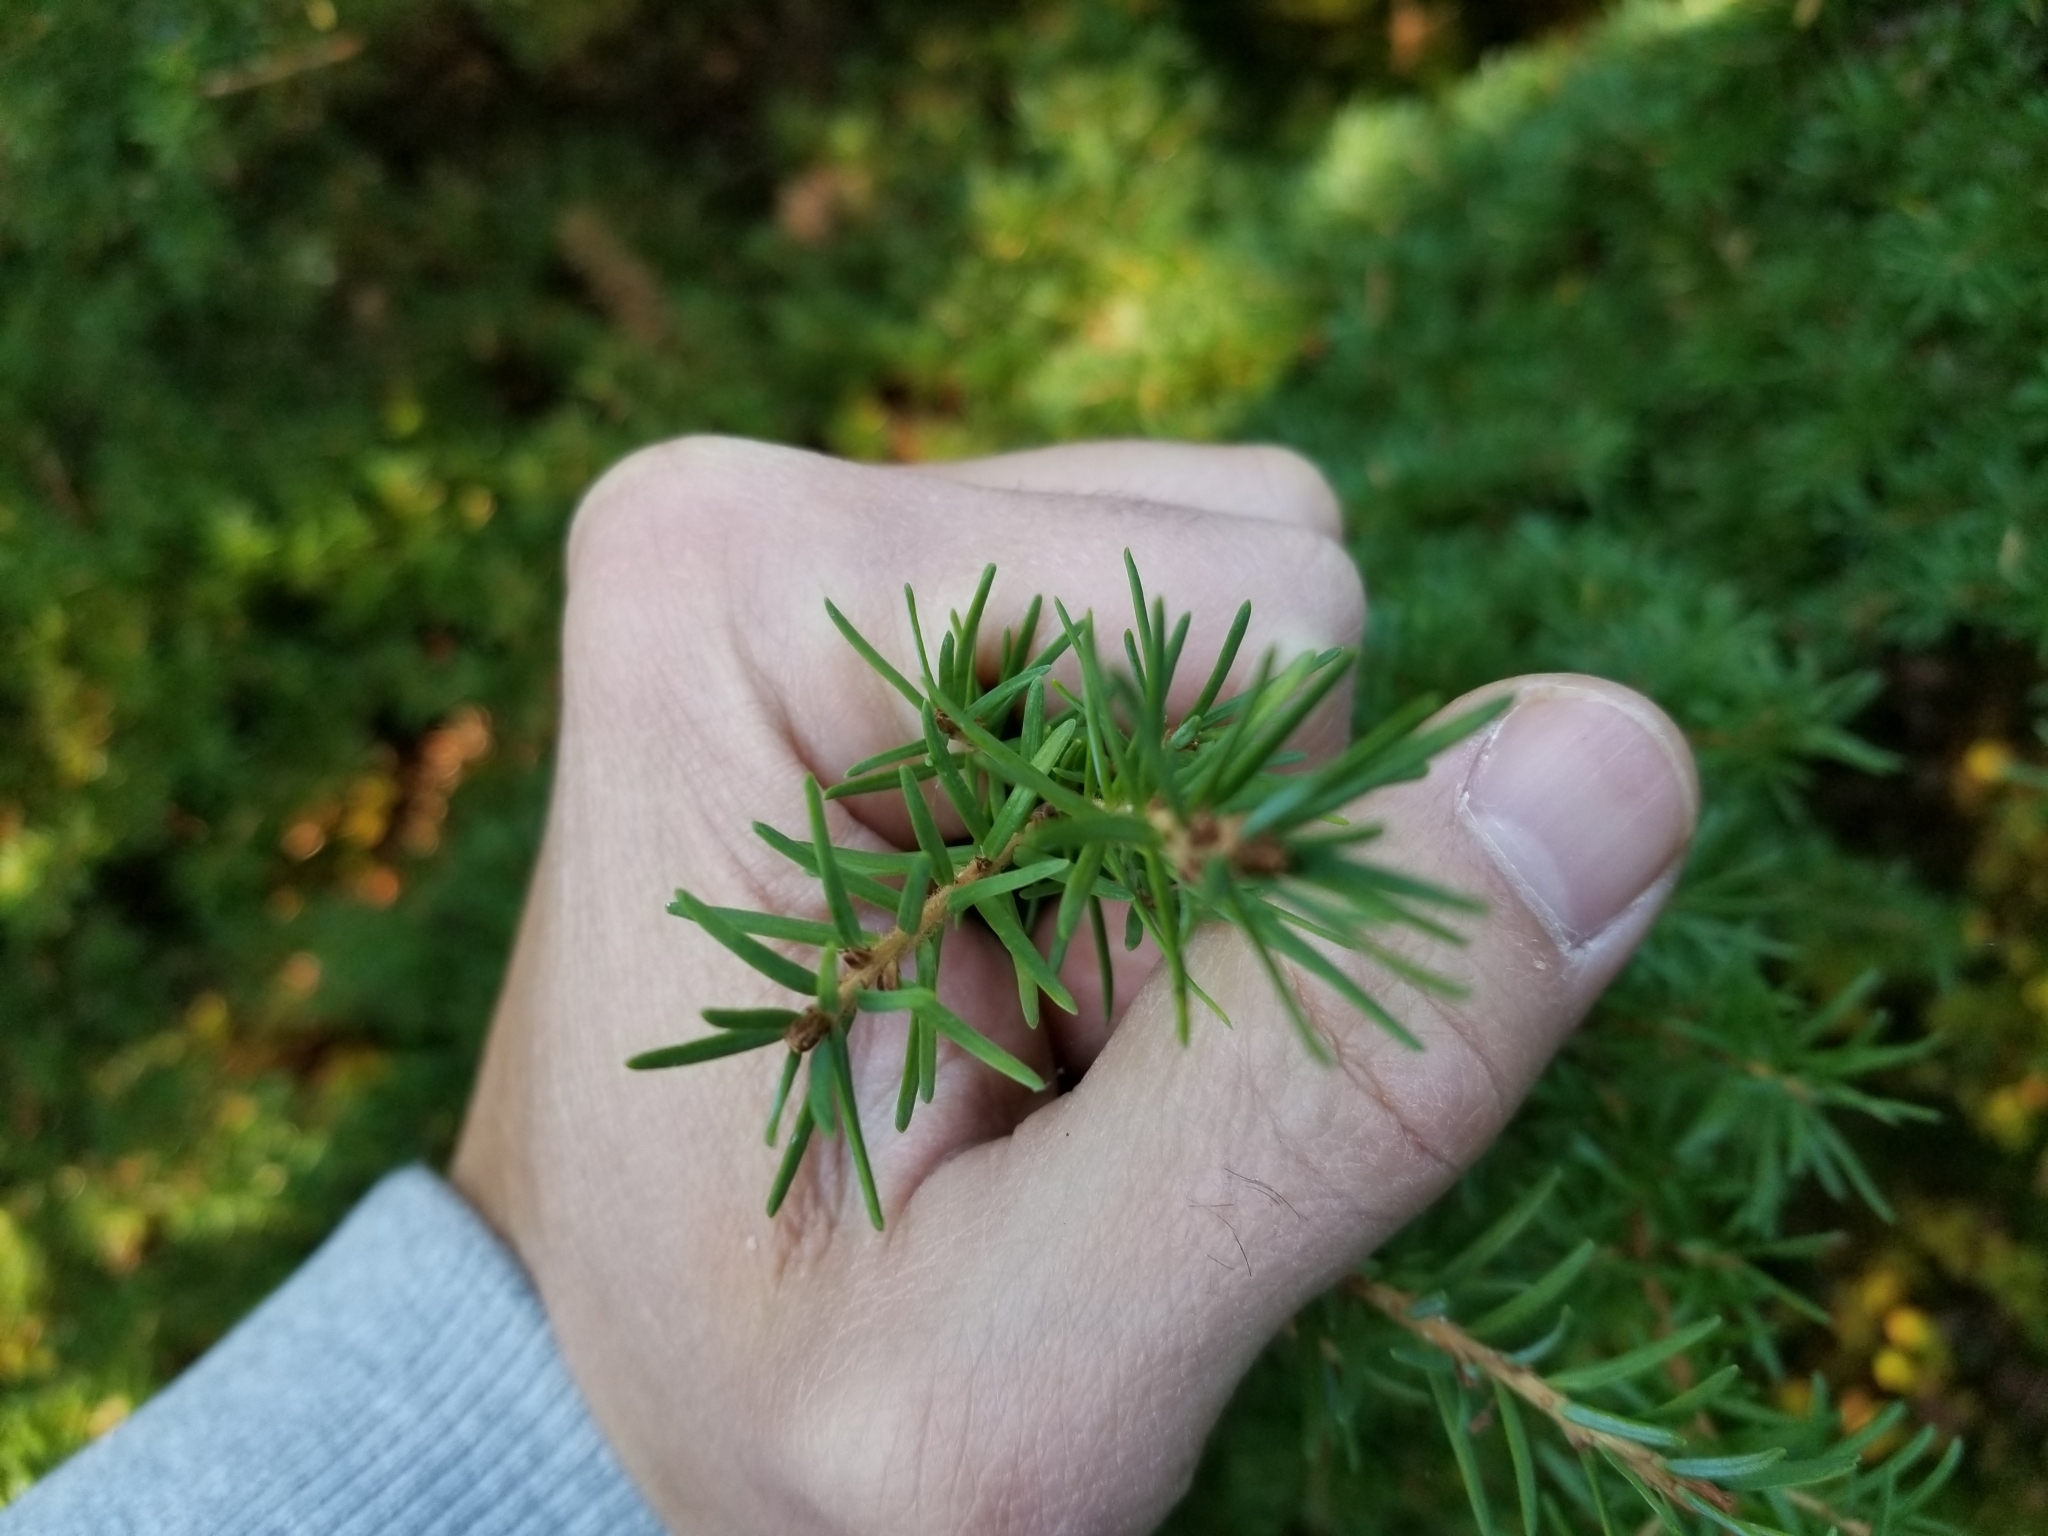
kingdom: Plantae
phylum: Tracheophyta
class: Pinopsida
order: Pinales
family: Pinaceae
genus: Tsuga
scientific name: Tsuga mertensiana
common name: Mountain hemlock
